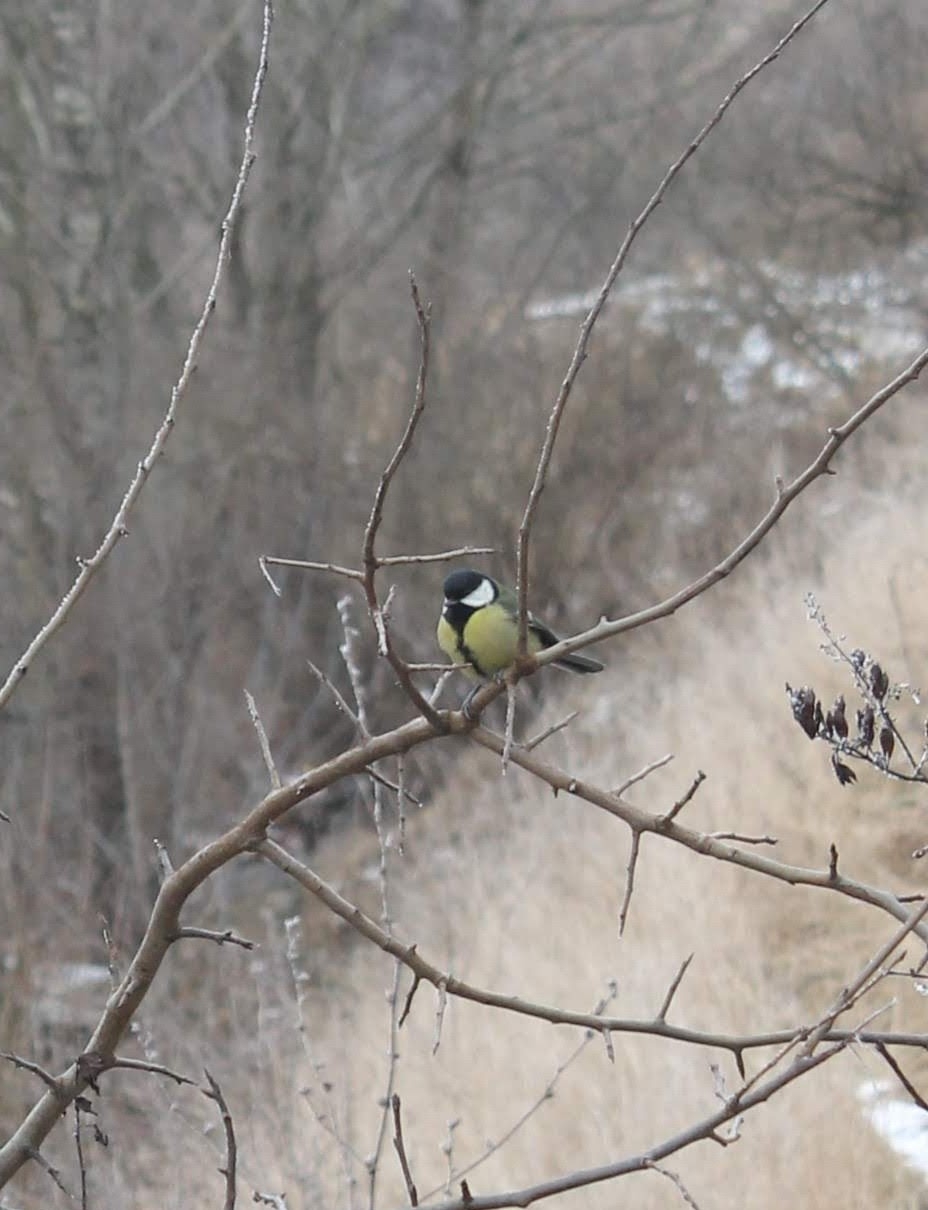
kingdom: Animalia
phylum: Chordata
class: Aves
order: Passeriformes
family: Paridae
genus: Parus
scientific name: Parus major
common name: Great tit
